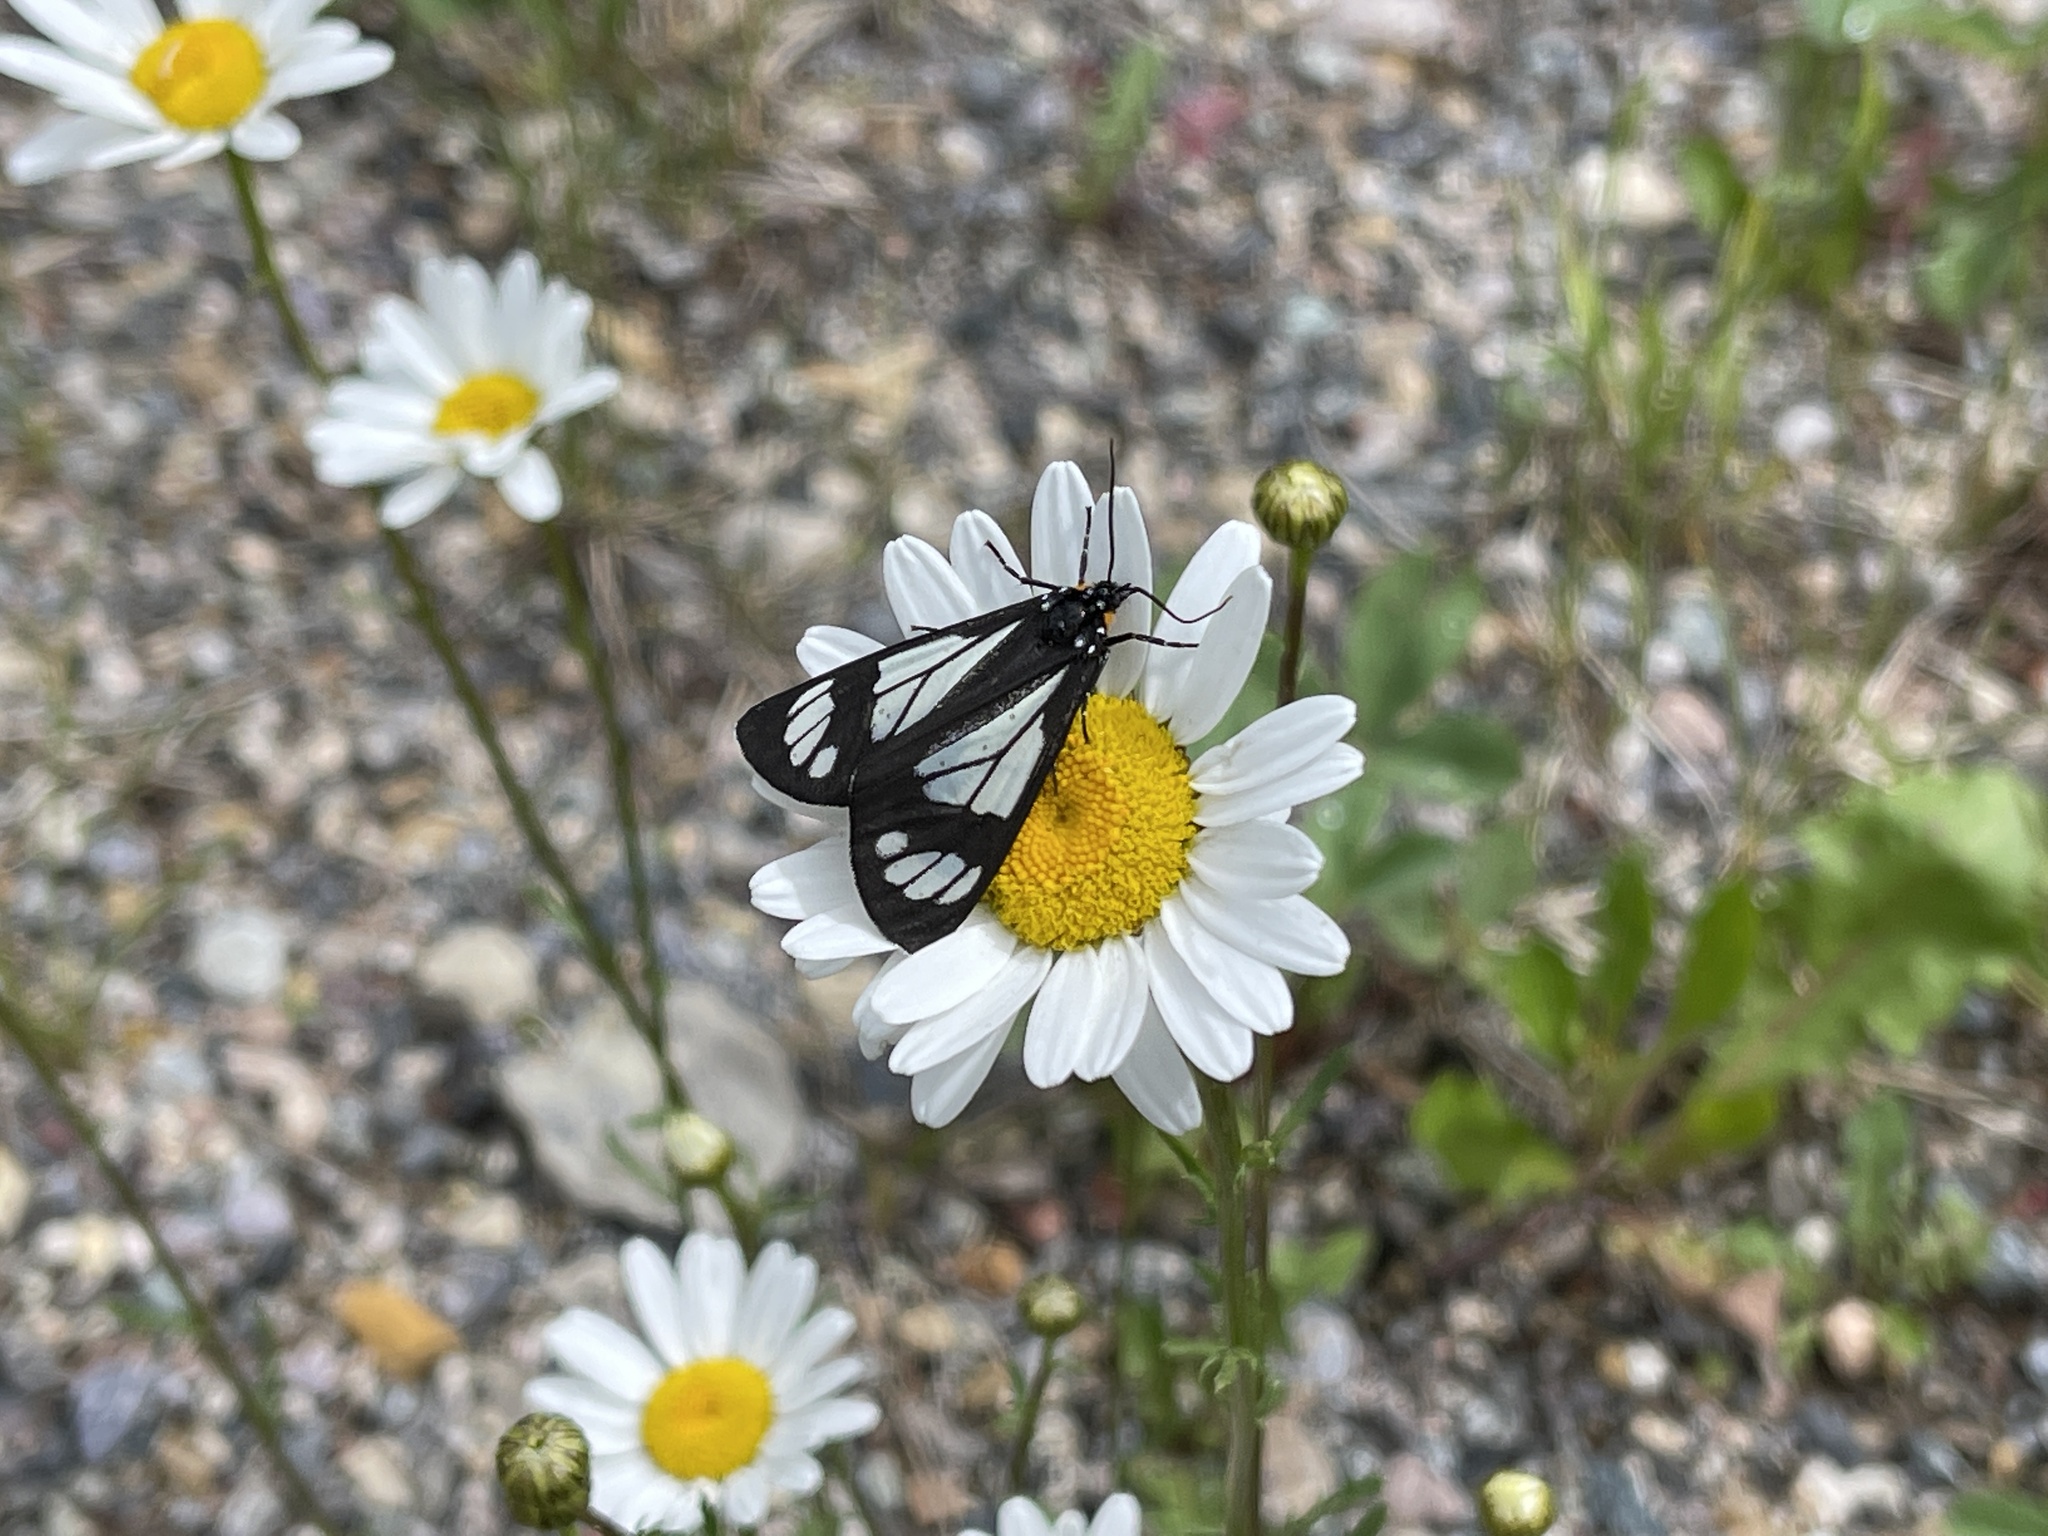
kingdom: Animalia
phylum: Arthropoda
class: Insecta
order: Lepidoptera
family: Erebidae
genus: Gnophaela
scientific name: Gnophaela vermiculata
